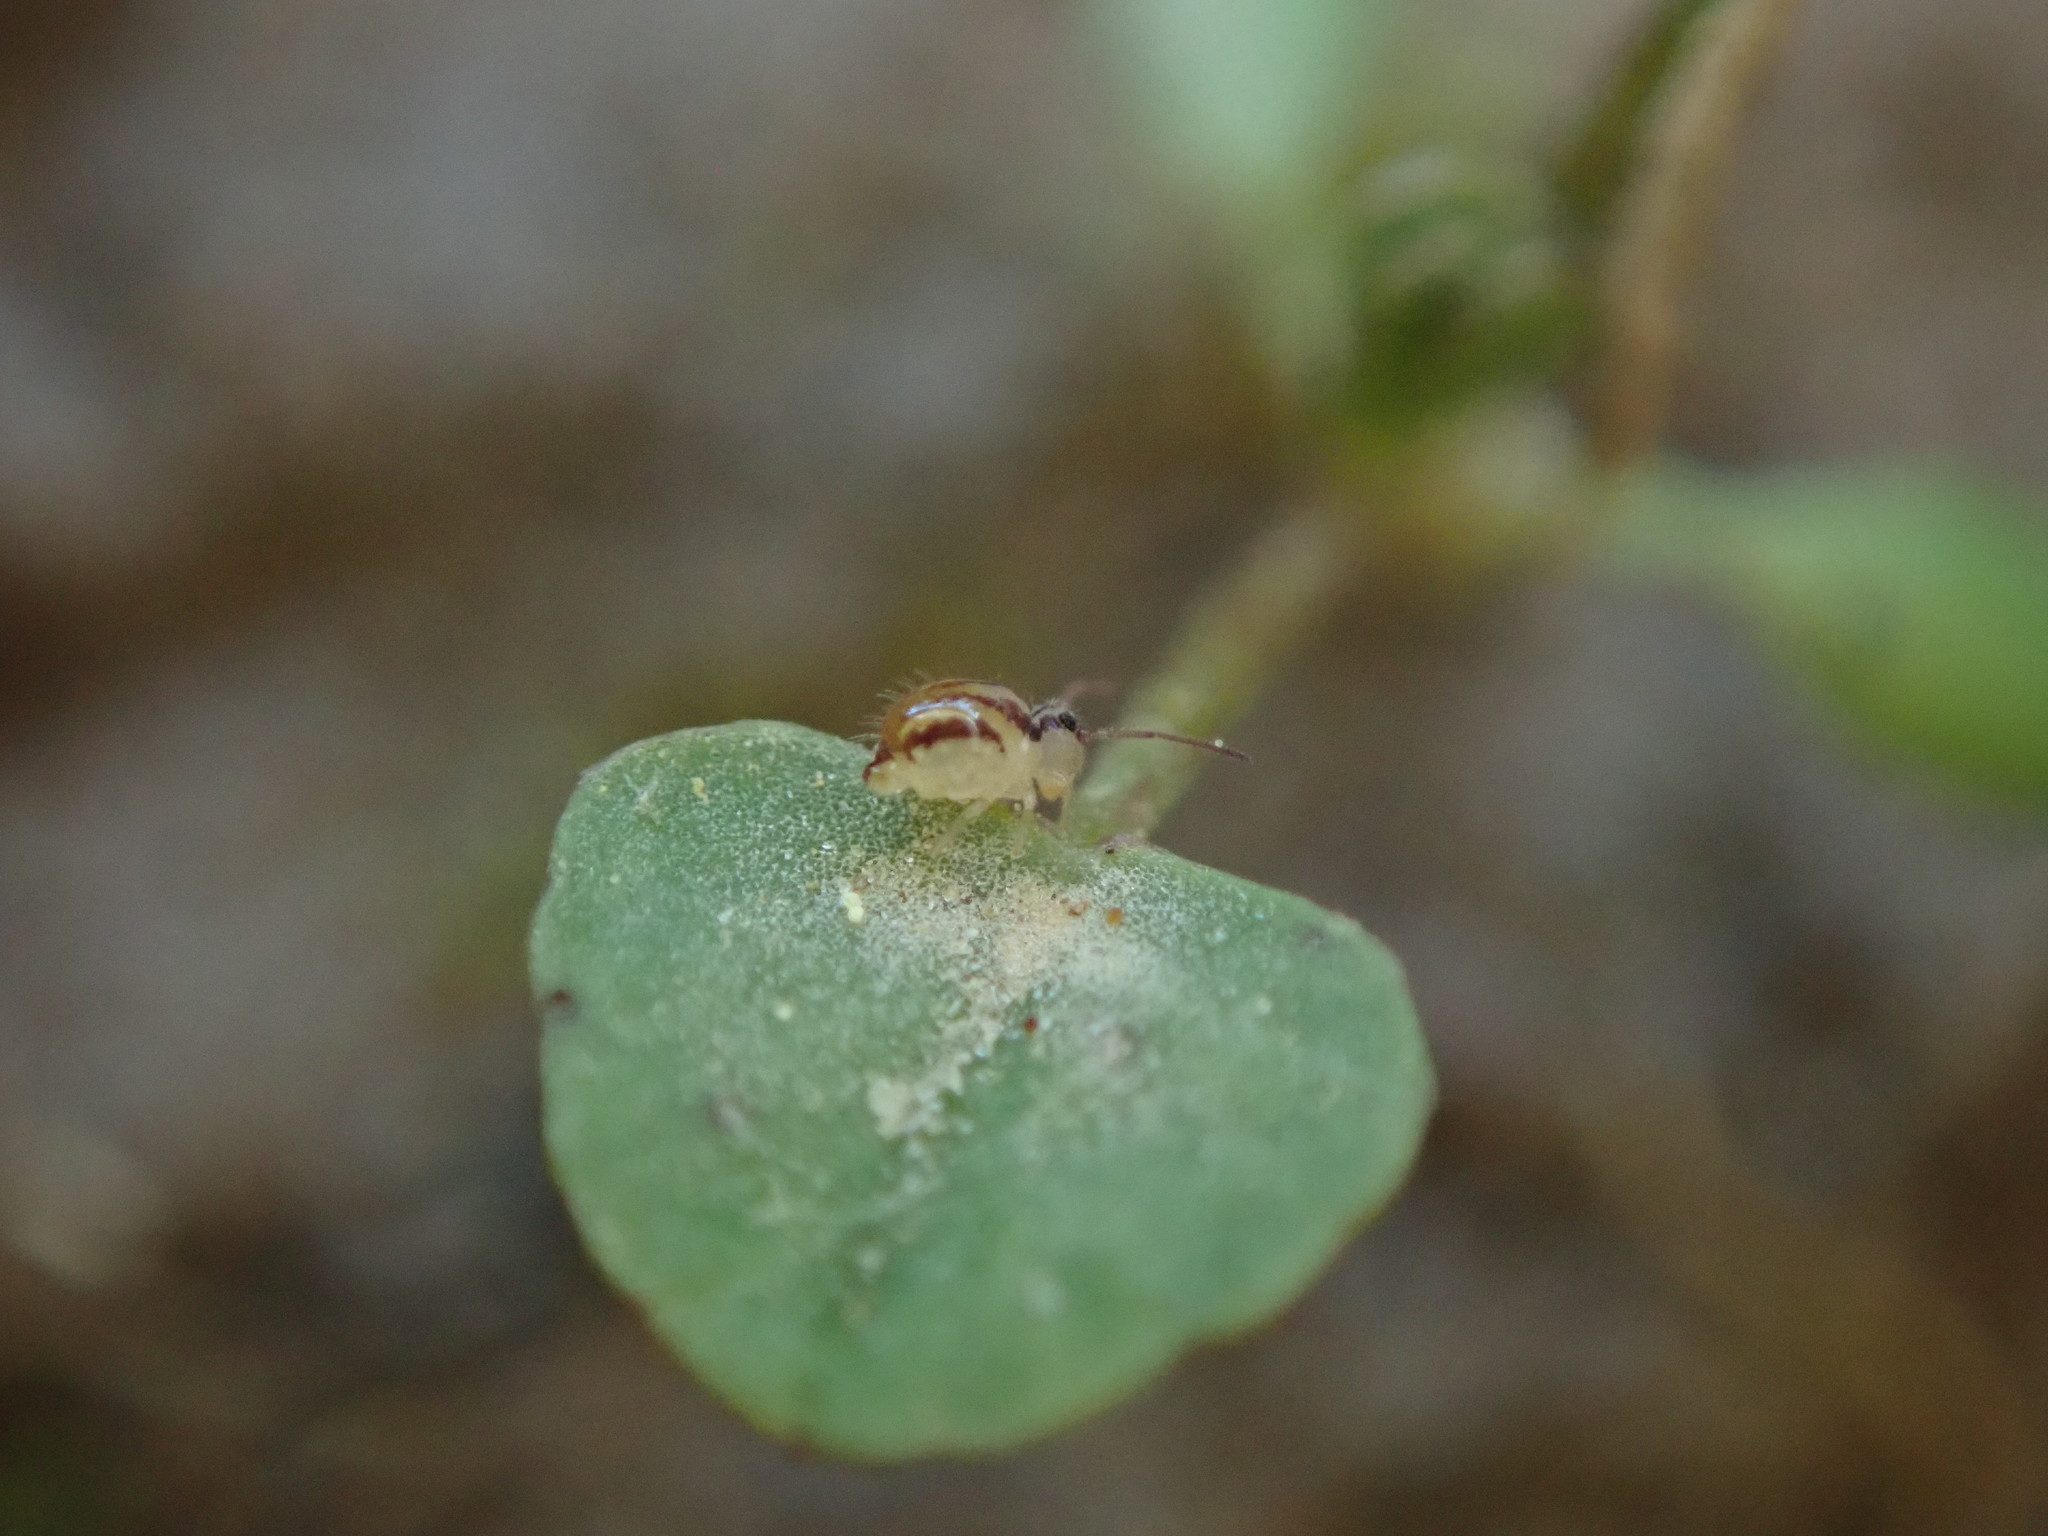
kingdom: Animalia
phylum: Arthropoda
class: Collembola
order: Symphypleona
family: Sminthuridae
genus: Sminthurus
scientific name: Sminthurus mencenbergae
